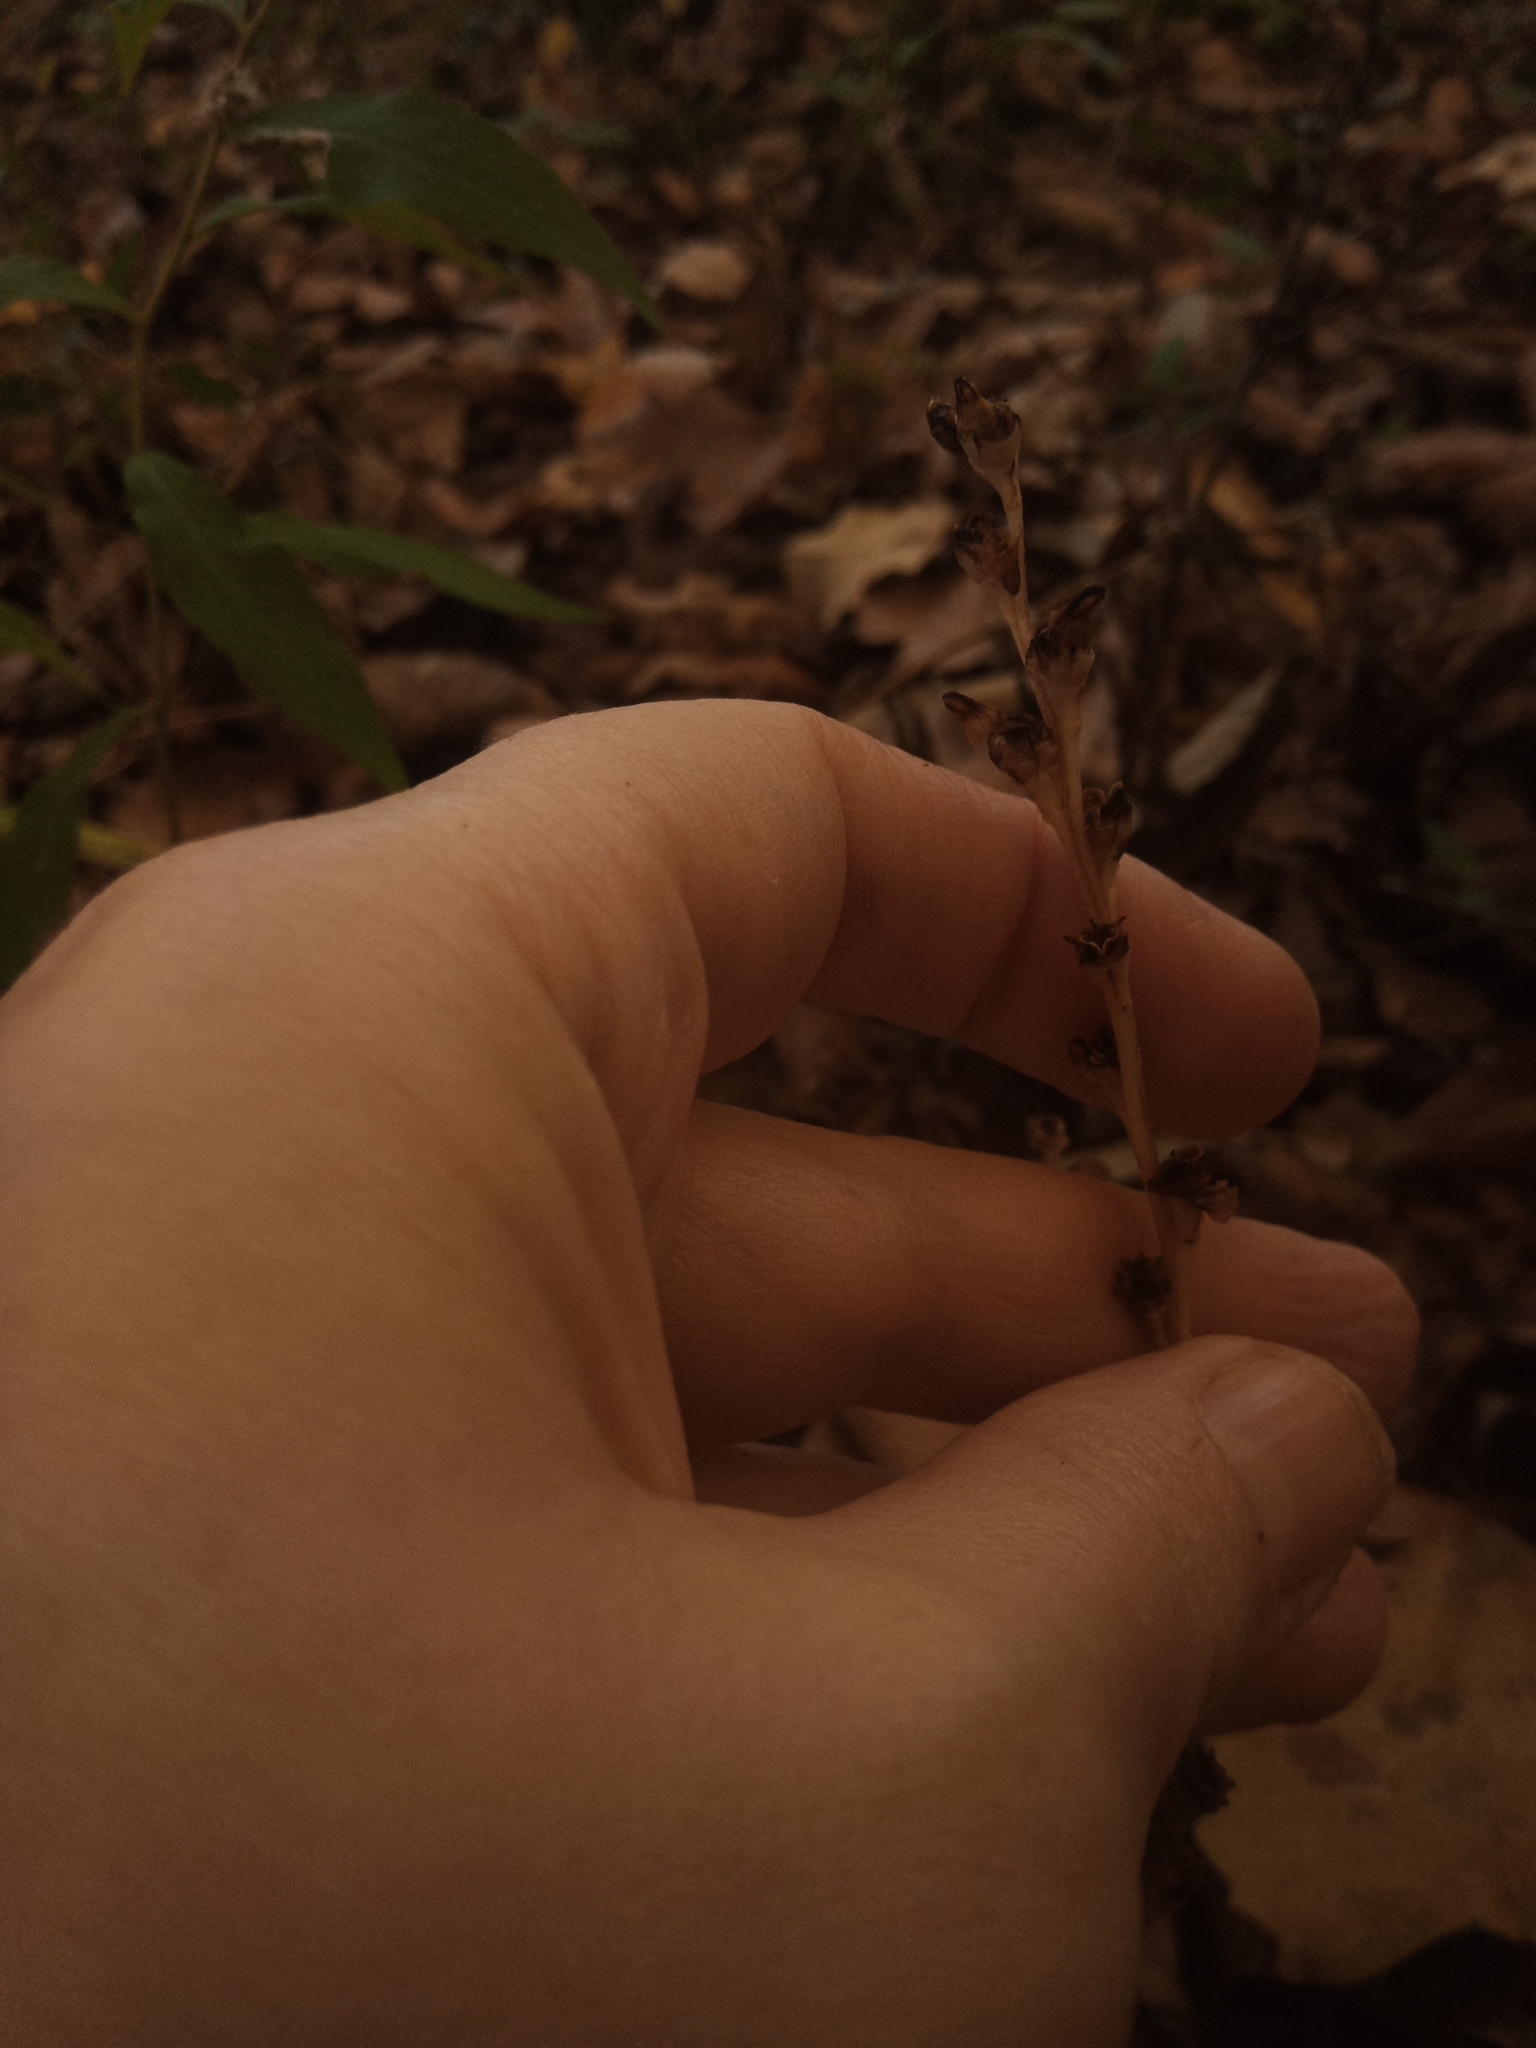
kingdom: Plantae
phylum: Tracheophyta
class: Magnoliopsida
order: Lamiales
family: Orobanchaceae
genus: Epifagus
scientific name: Epifagus virginiana
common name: Beechdrops
